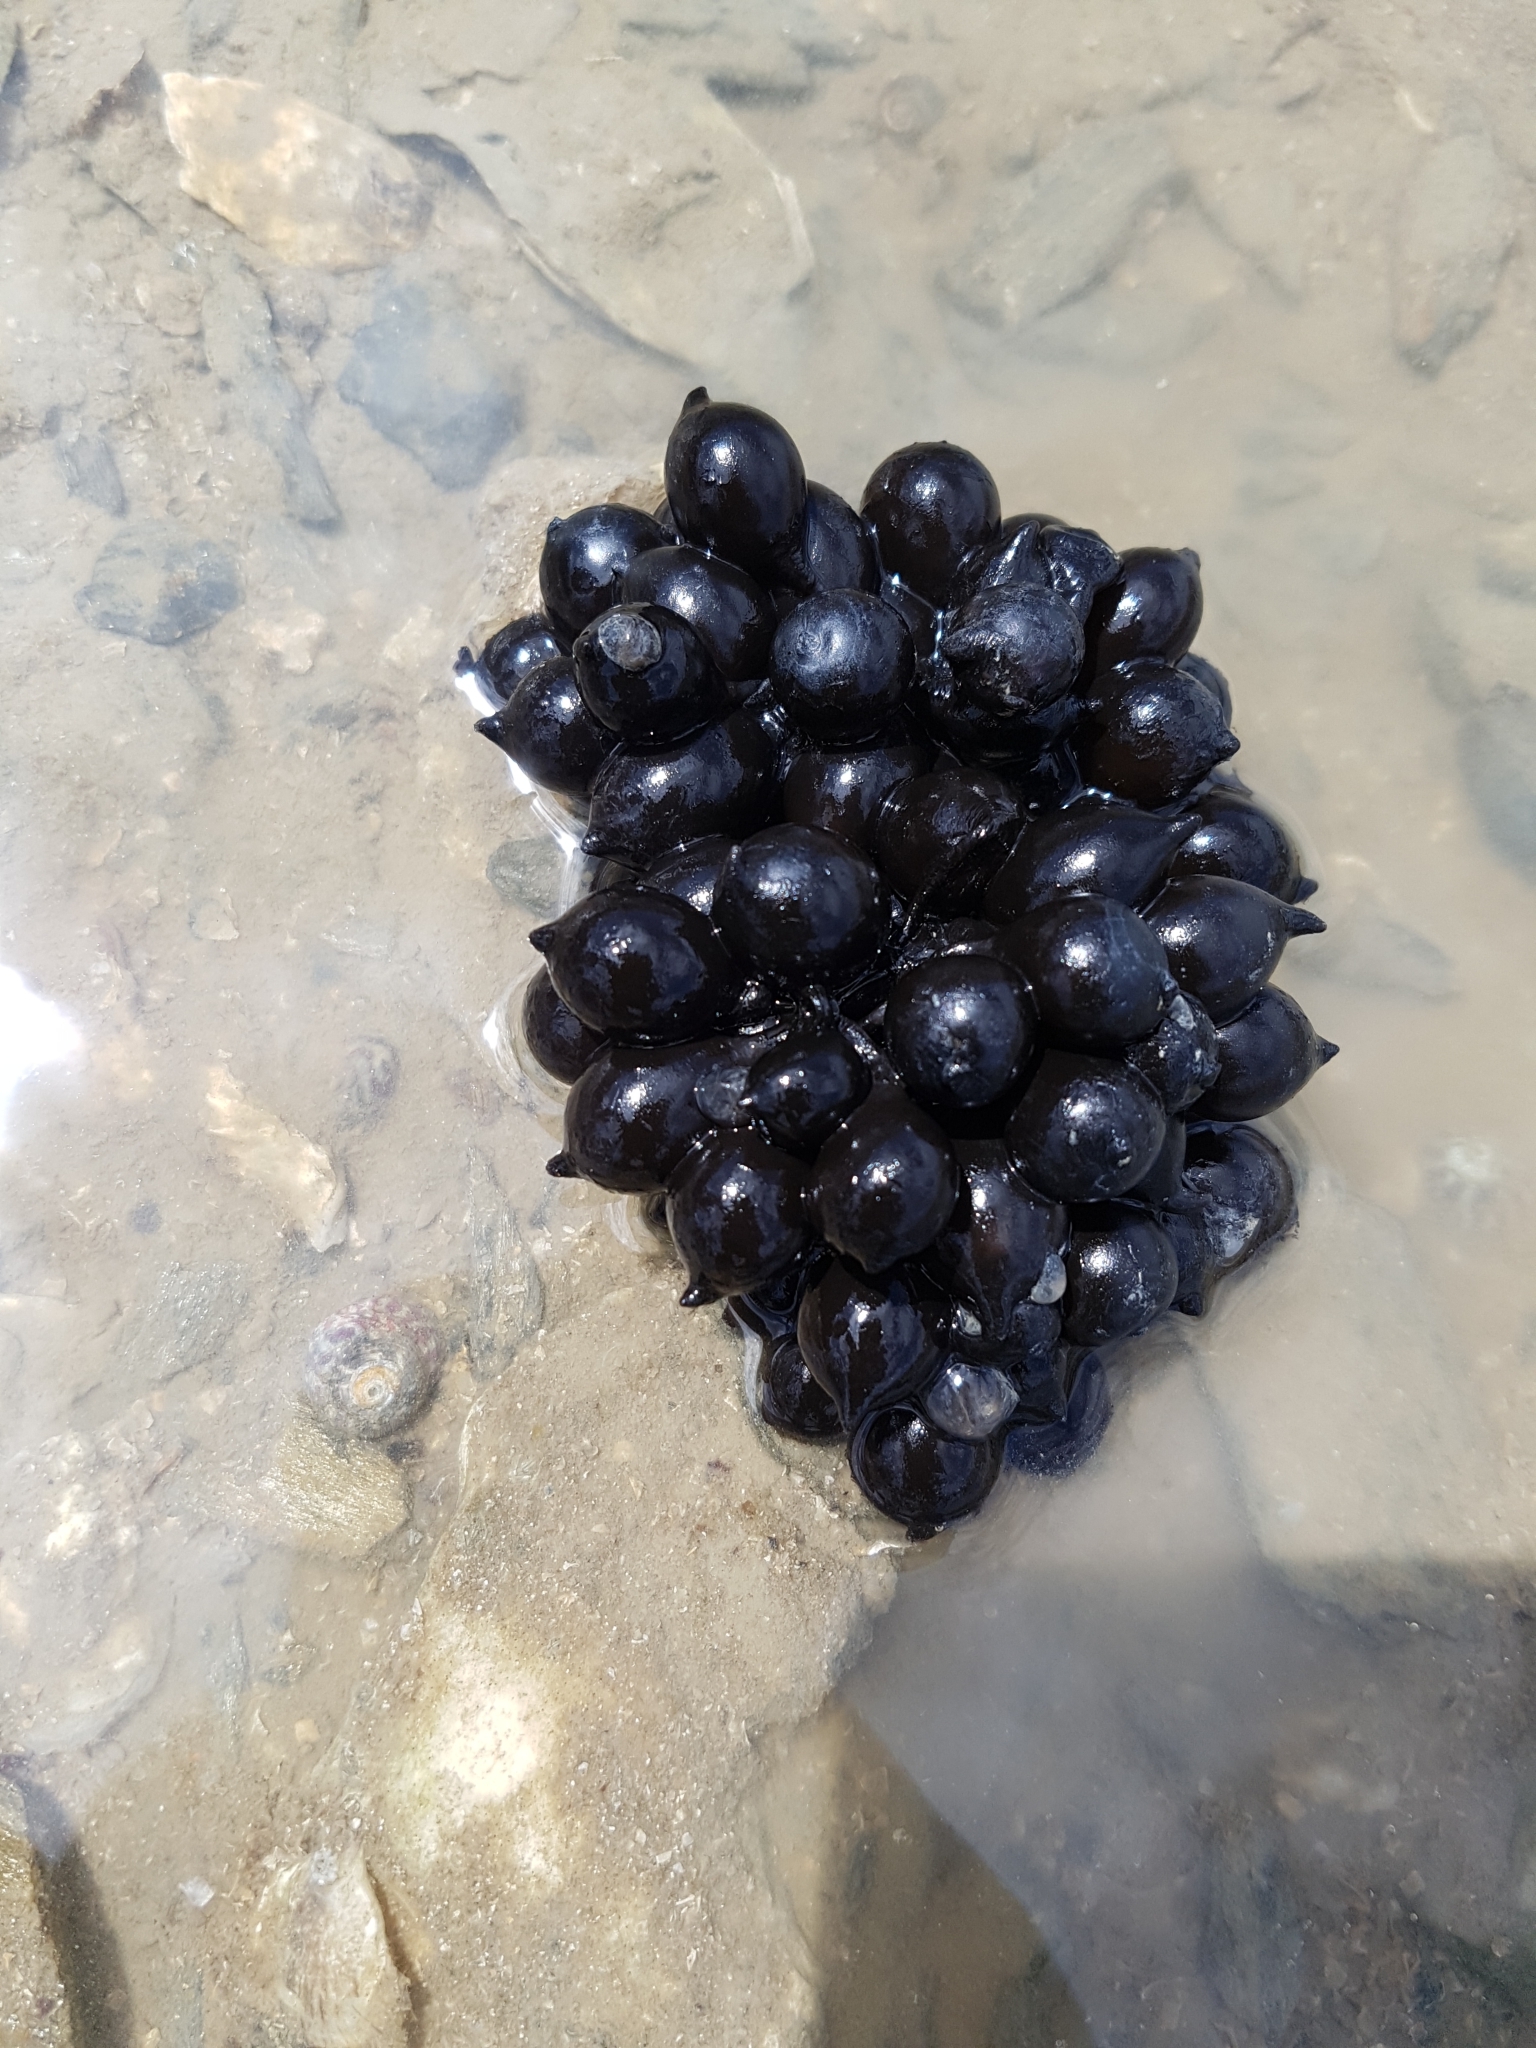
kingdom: Animalia
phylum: Mollusca
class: Cephalopoda
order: Sepiida
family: Sepiidae
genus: Sepia
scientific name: Sepia officinalis
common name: Common cuttlefish
